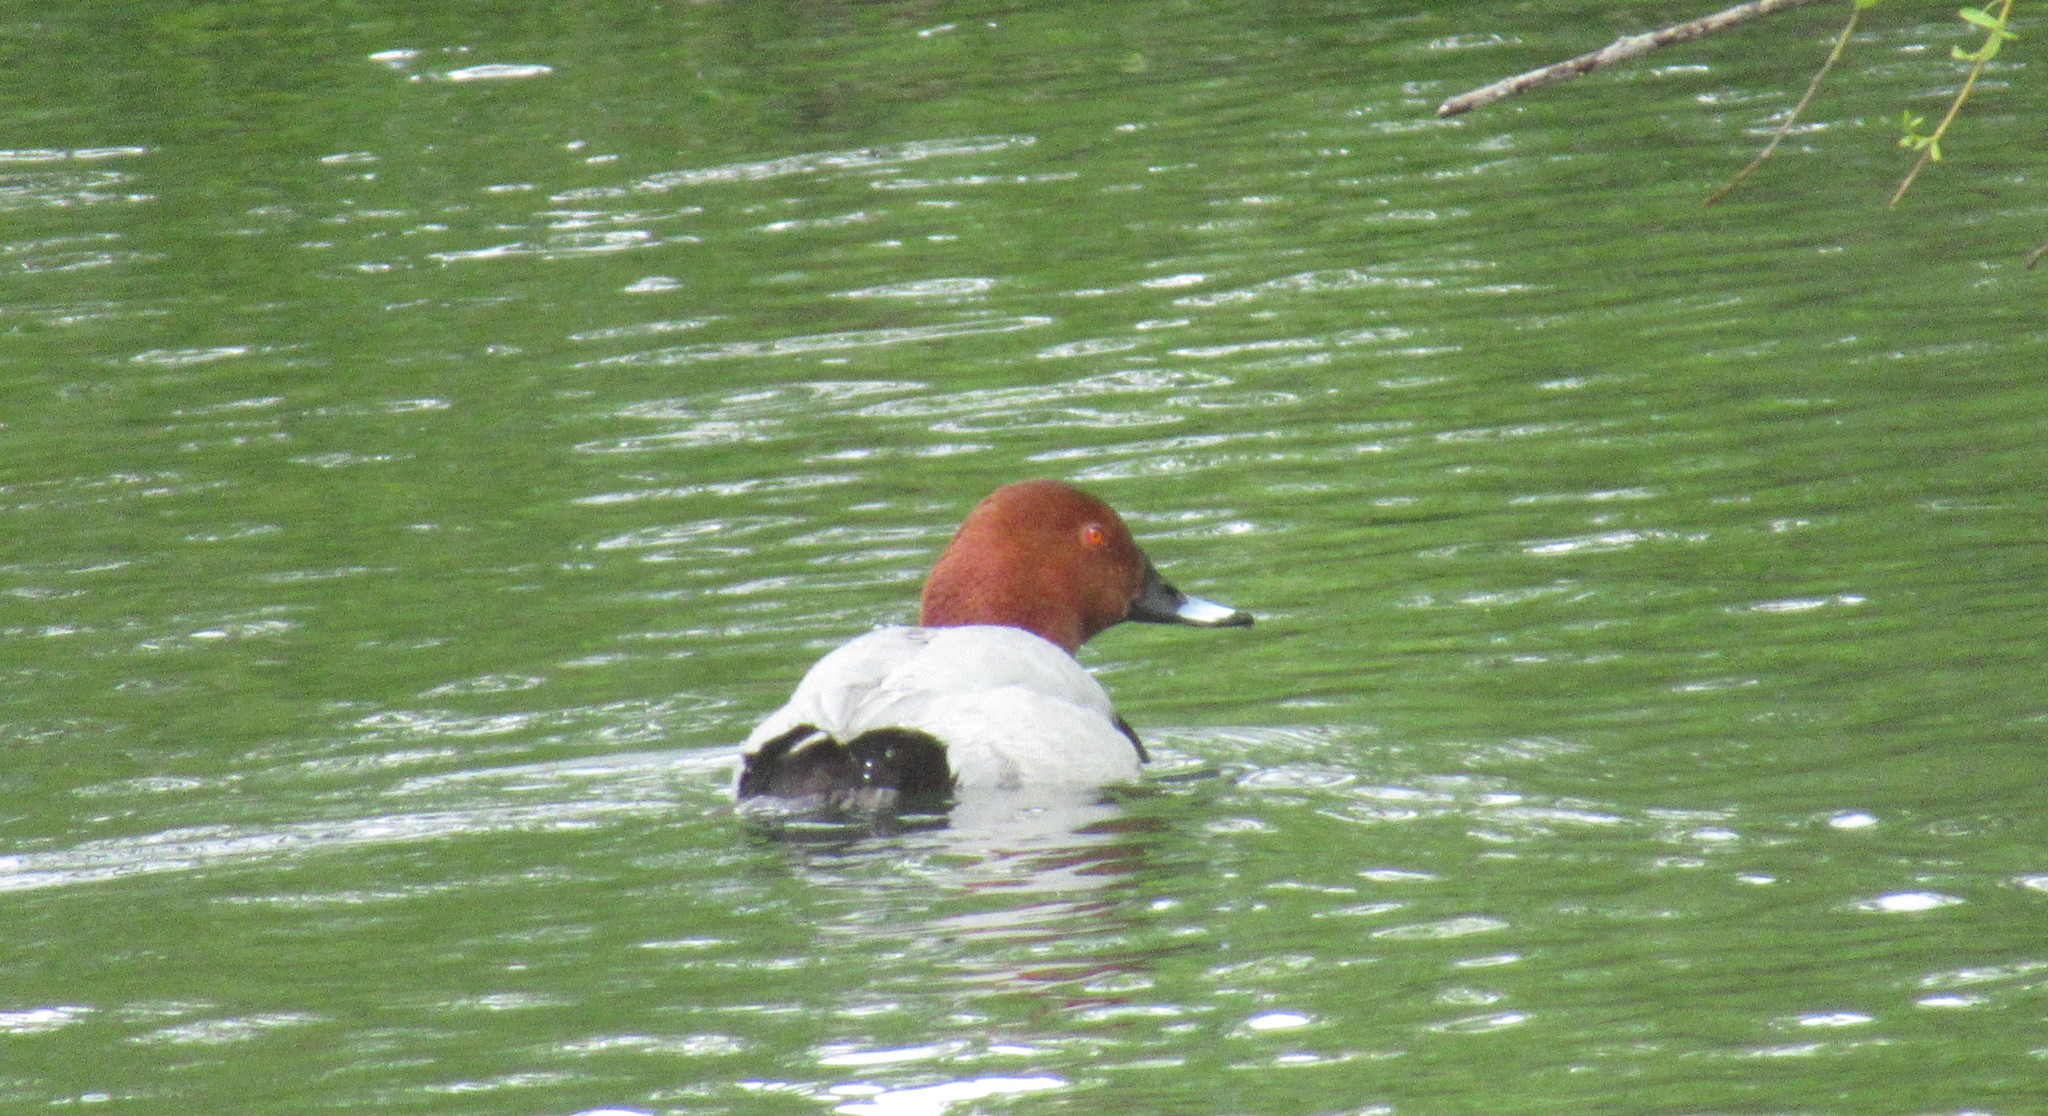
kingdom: Animalia
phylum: Chordata
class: Aves
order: Anseriformes
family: Anatidae
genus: Aythya
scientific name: Aythya ferina
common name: Common pochard
